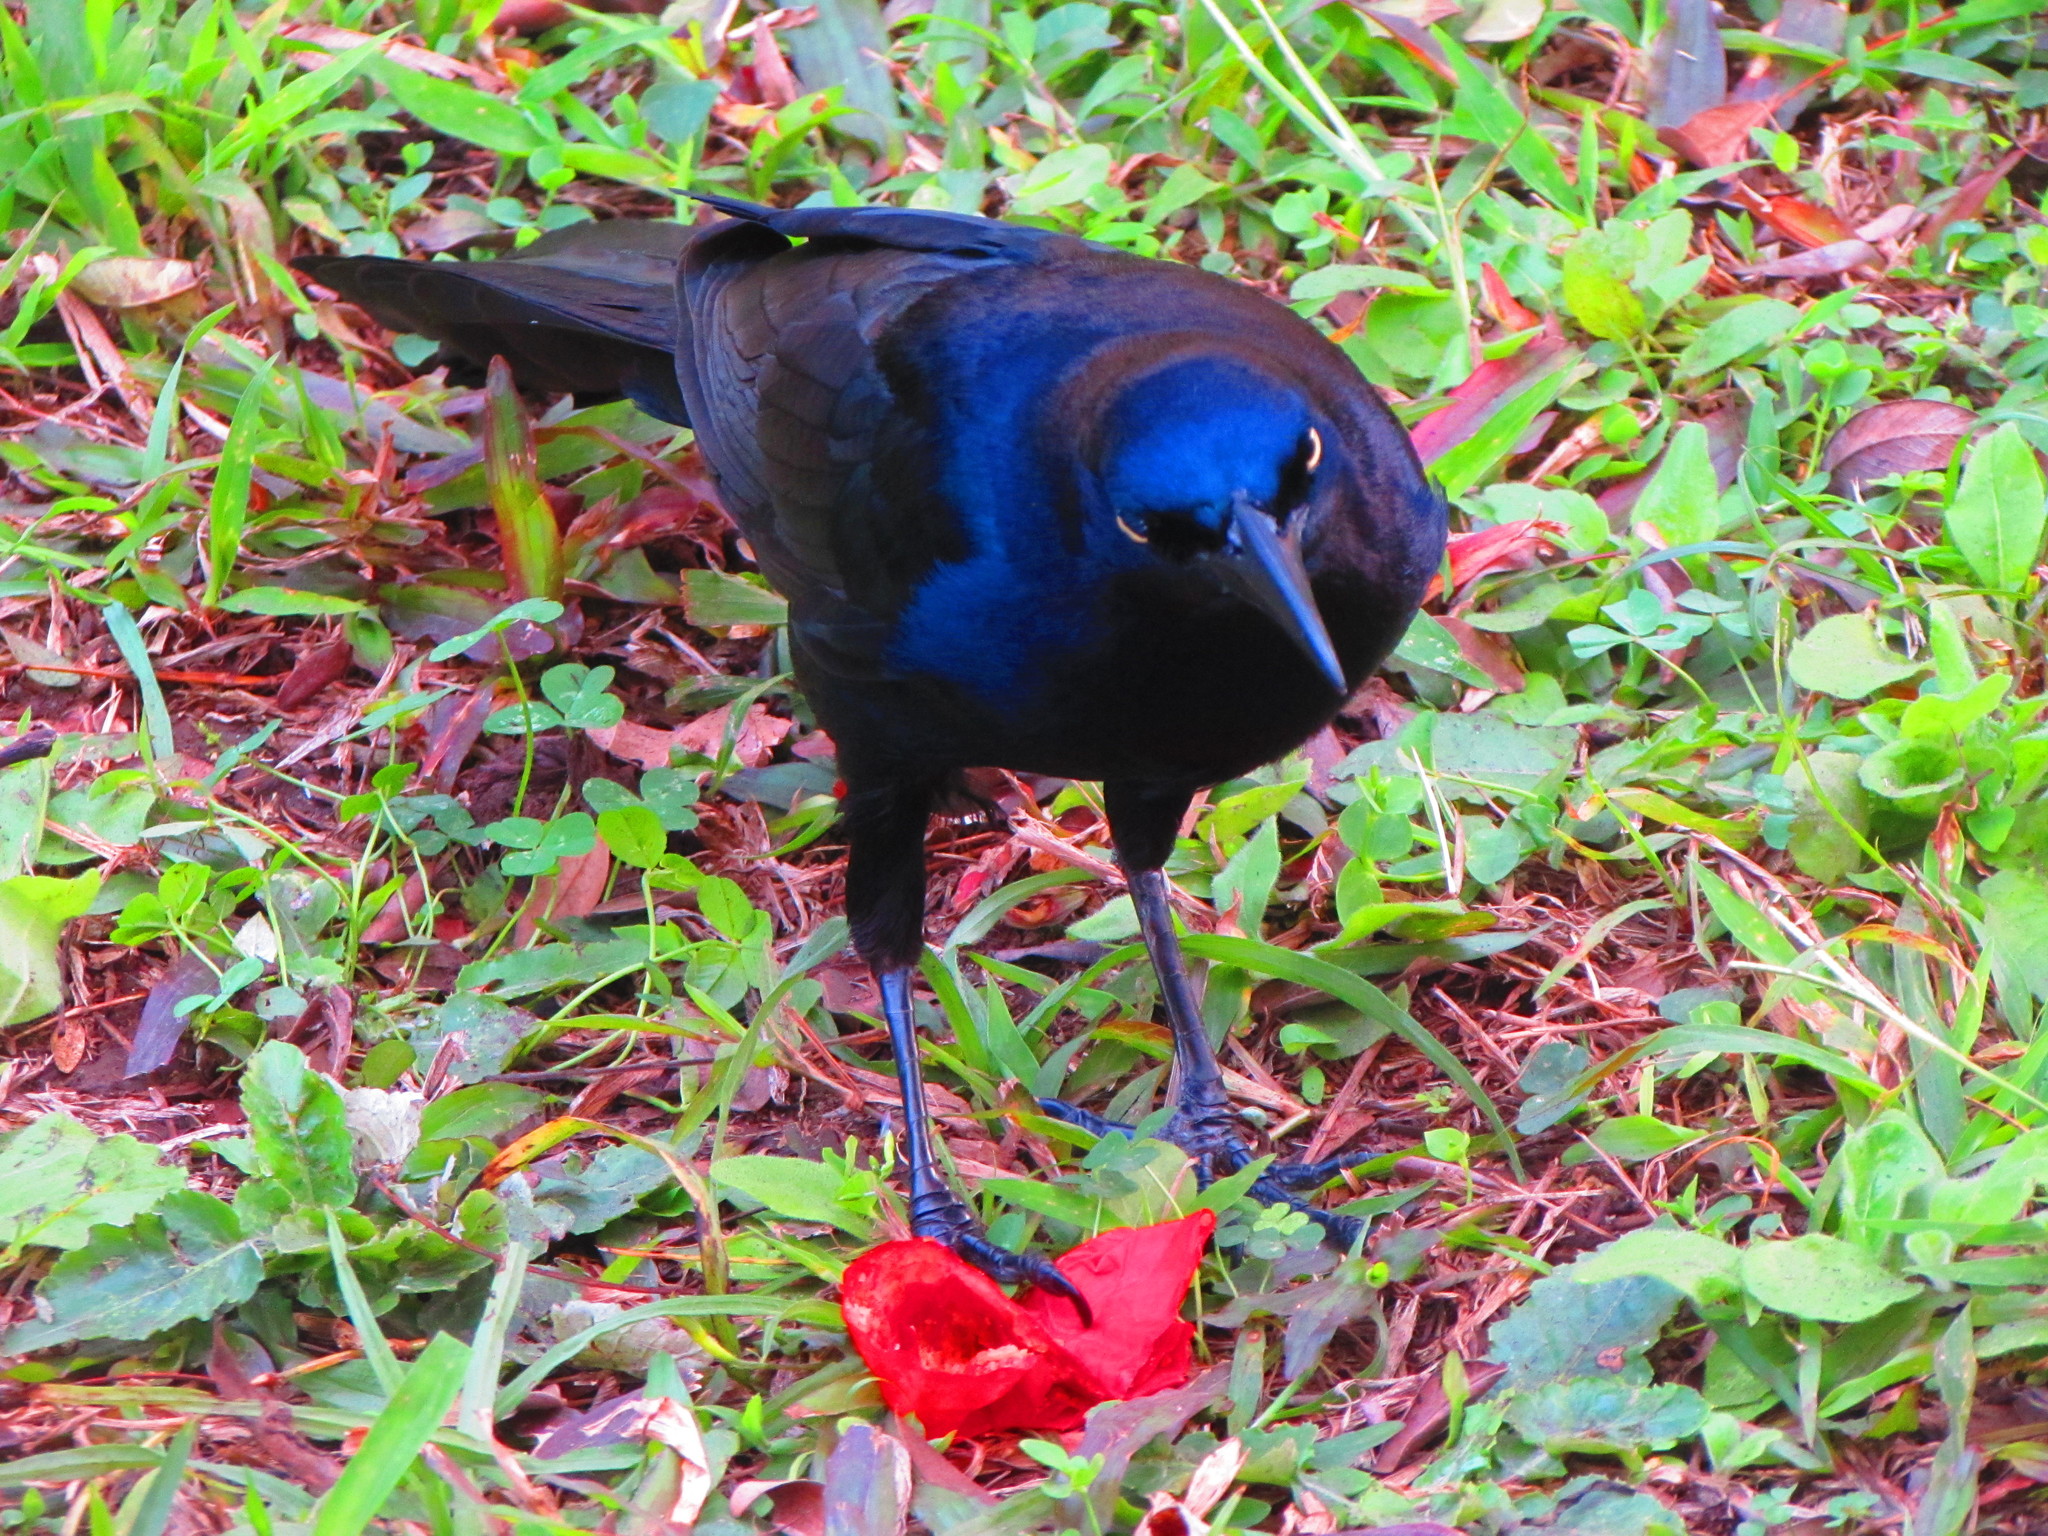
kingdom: Animalia
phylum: Chordata
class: Aves
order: Passeriformes
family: Icteridae
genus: Quiscalus
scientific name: Quiscalus mexicanus
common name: Great-tailed grackle
